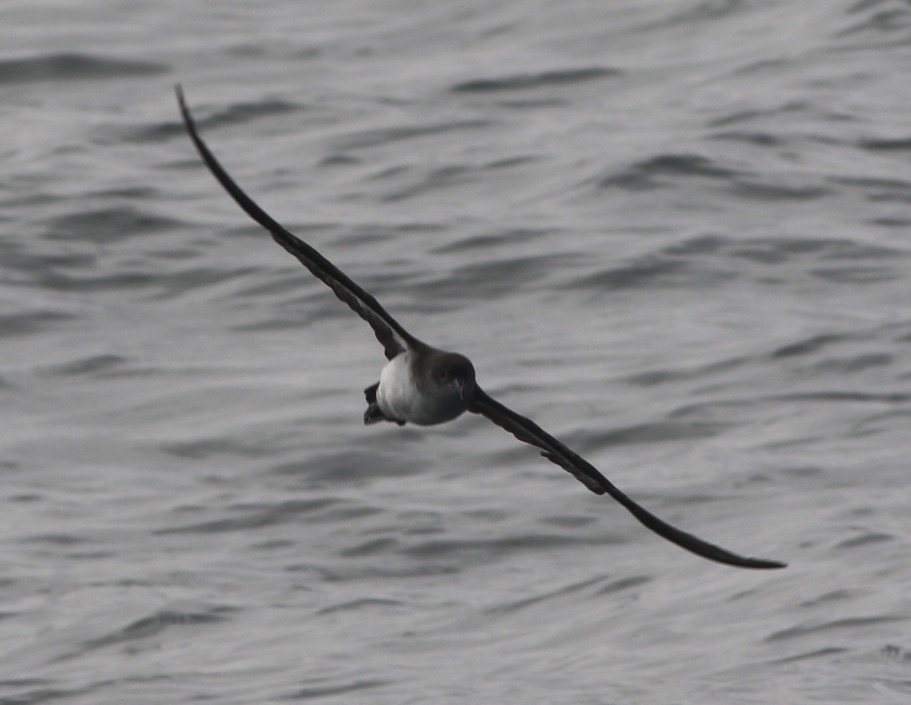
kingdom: Animalia
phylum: Chordata
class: Aves
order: Procellariiformes
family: Procellariidae
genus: Puffinus
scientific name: Puffinus opisthomelas
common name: Black-vented shearwater
